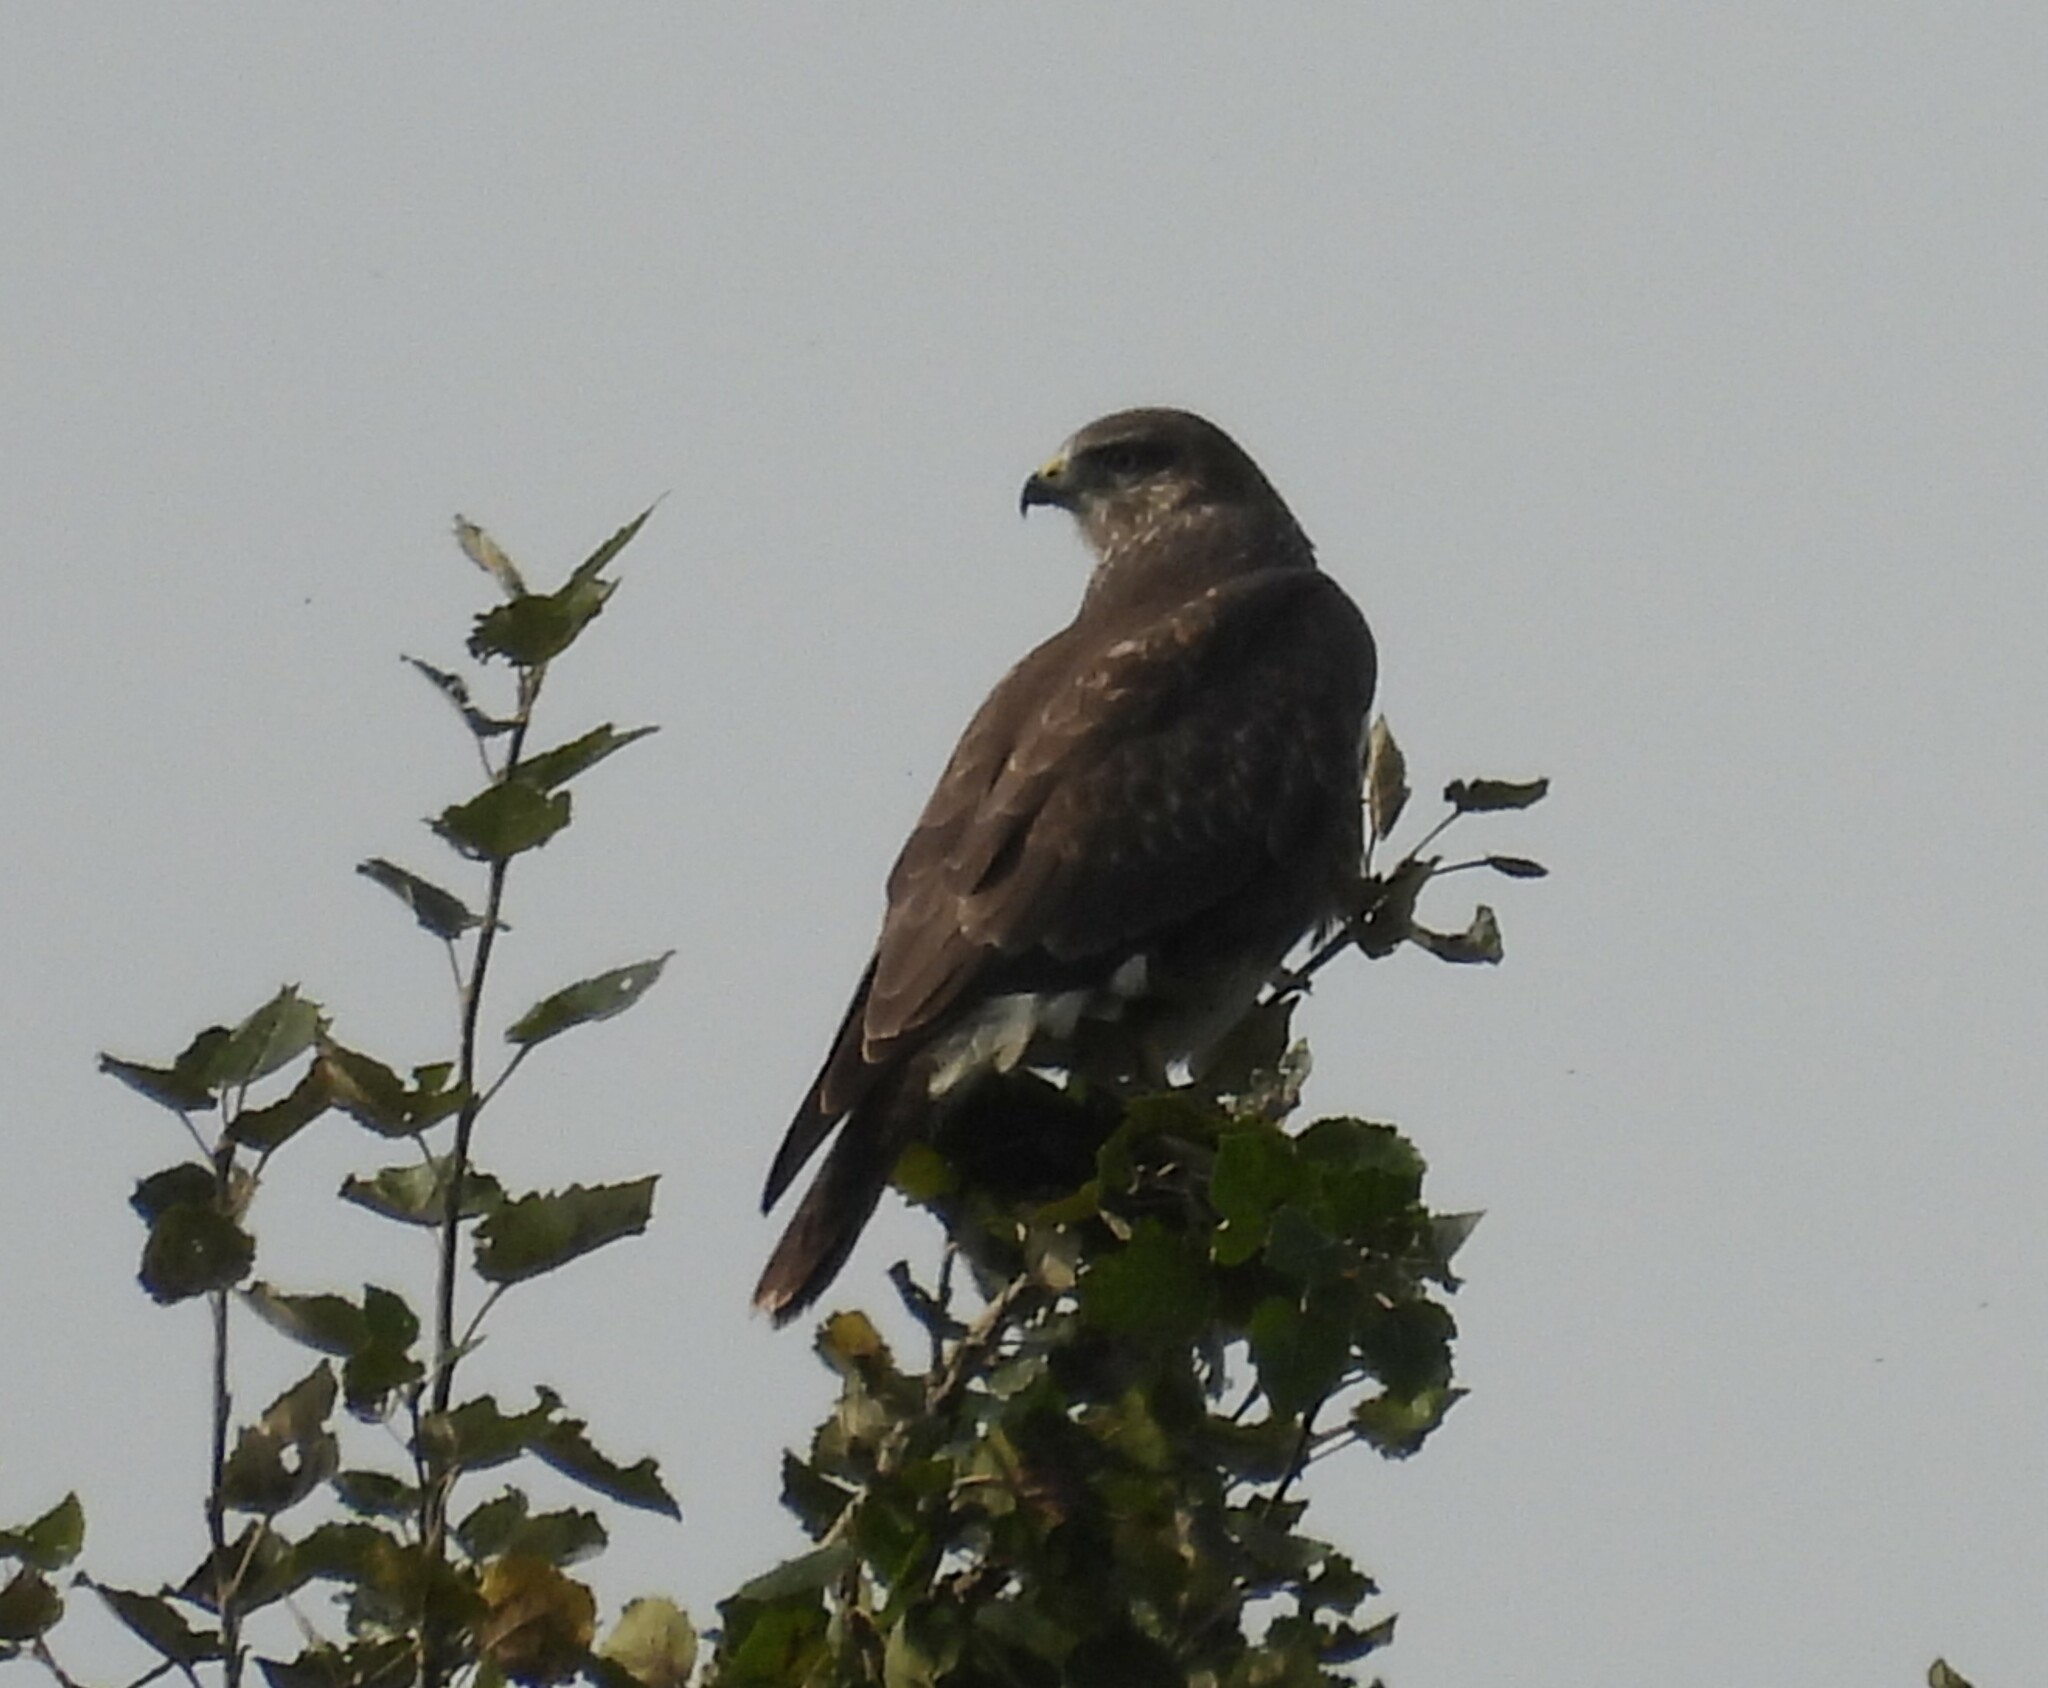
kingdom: Animalia
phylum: Chordata
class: Aves
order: Accipitriformes
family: Accipitridae
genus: Buteo
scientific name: Buteo buteo
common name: Common buzzard
